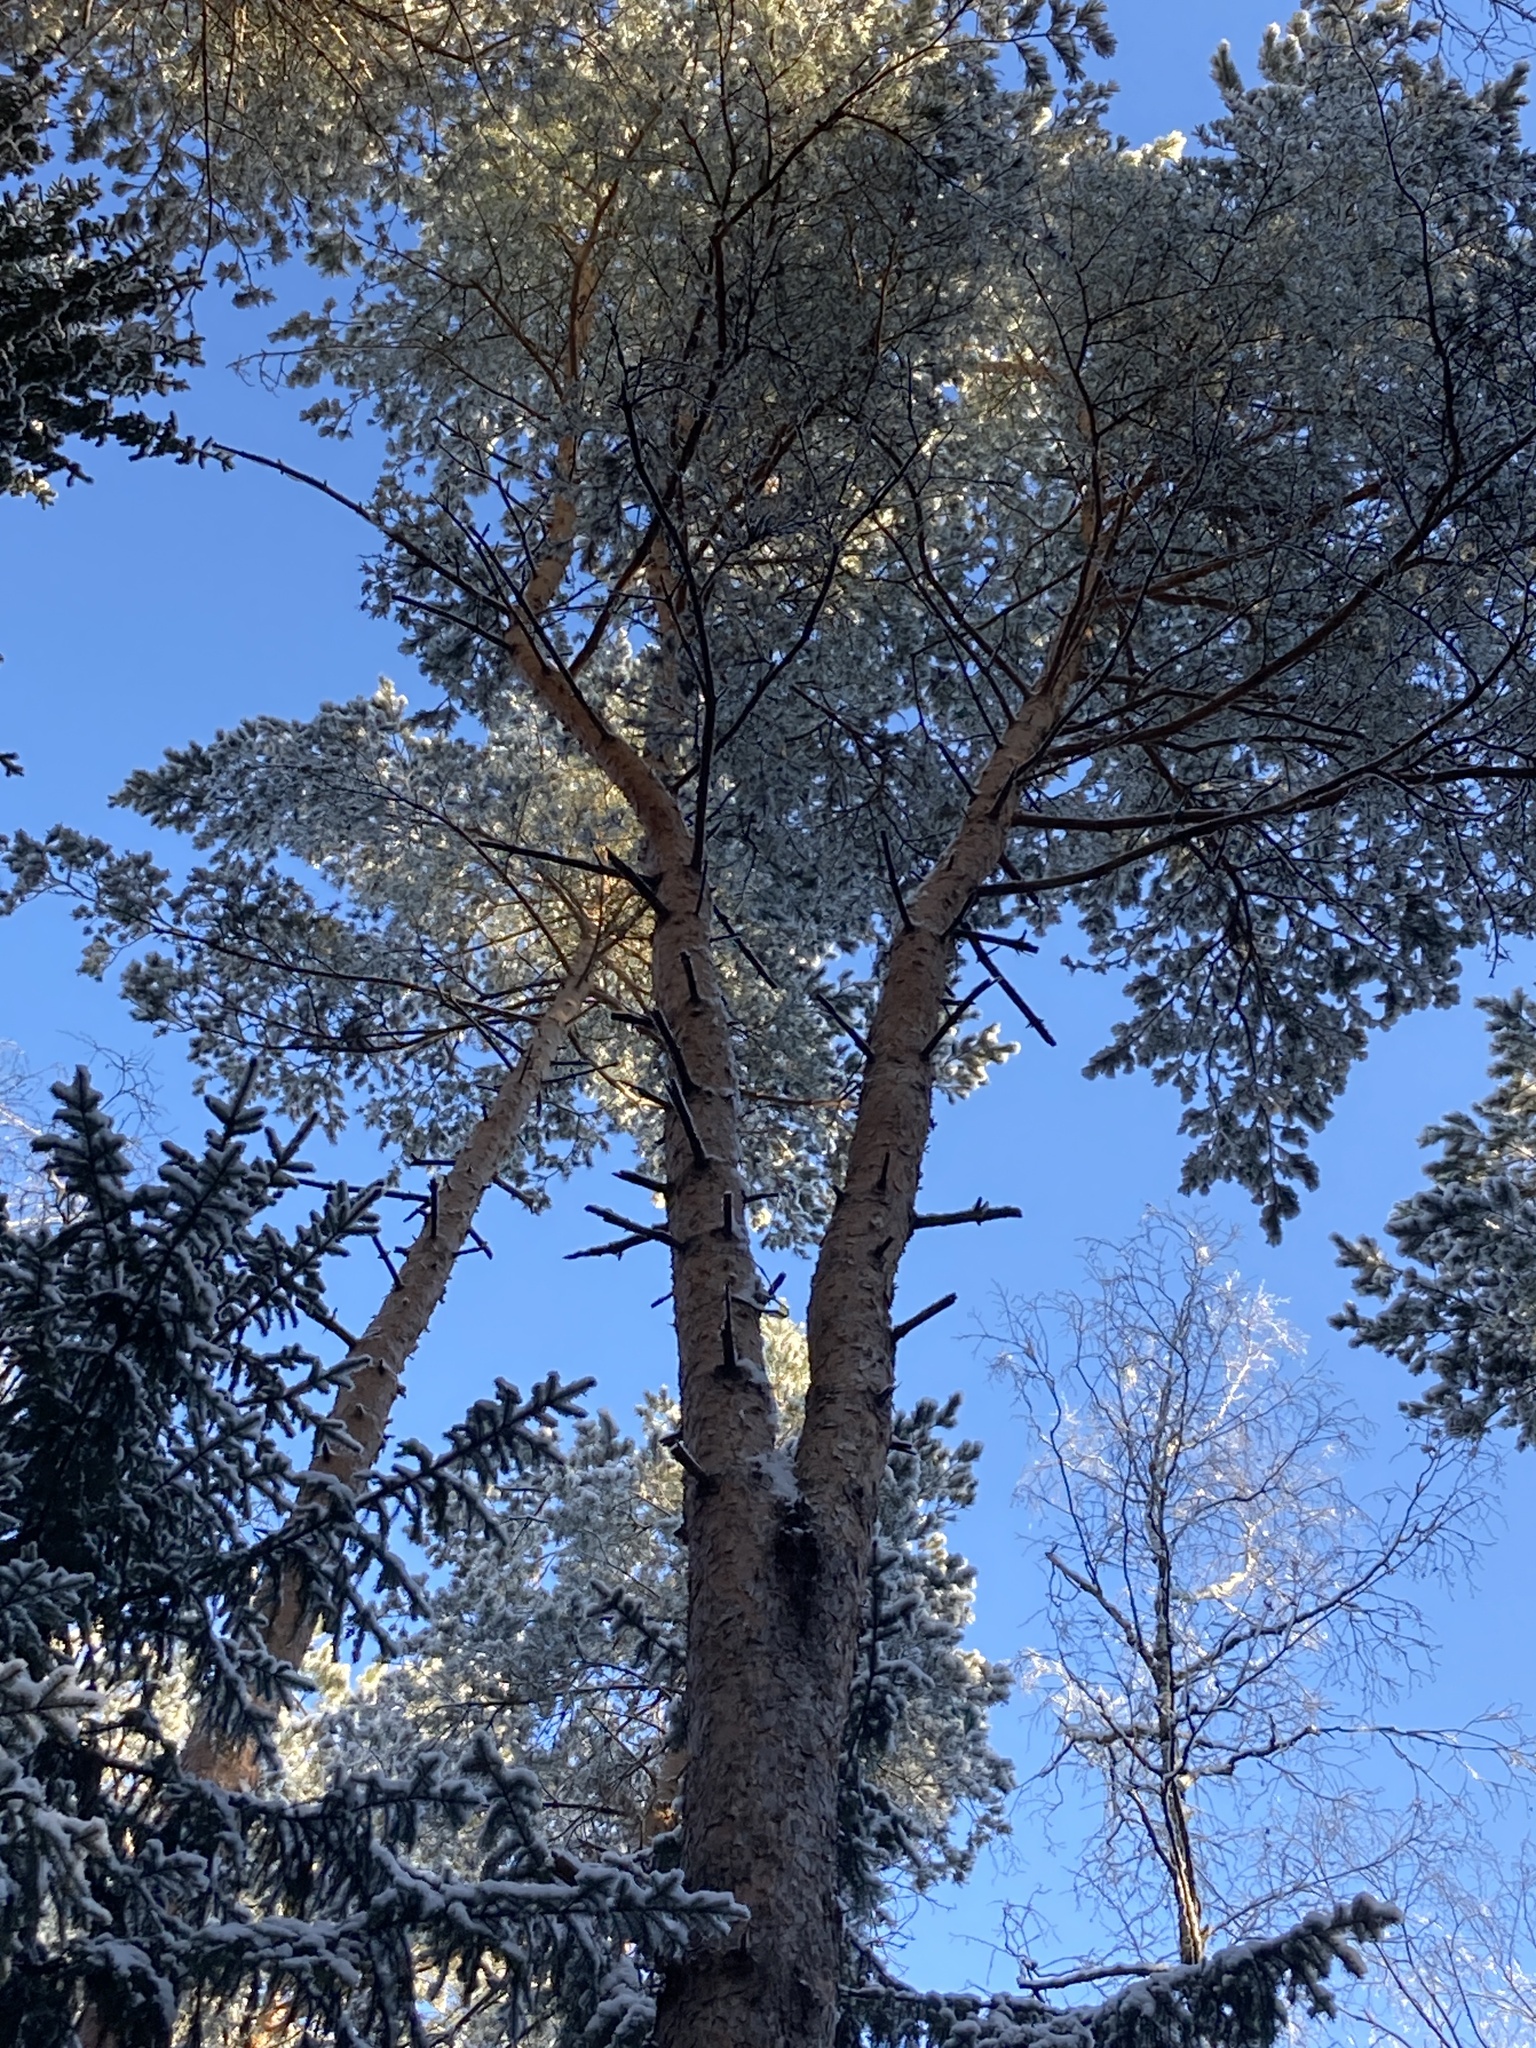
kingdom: Plantae
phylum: Tracheophyta
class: Pinopsida
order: Pinales
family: Pinaceae
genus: Pinus
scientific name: Pinus sylvestris
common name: Scots pine
